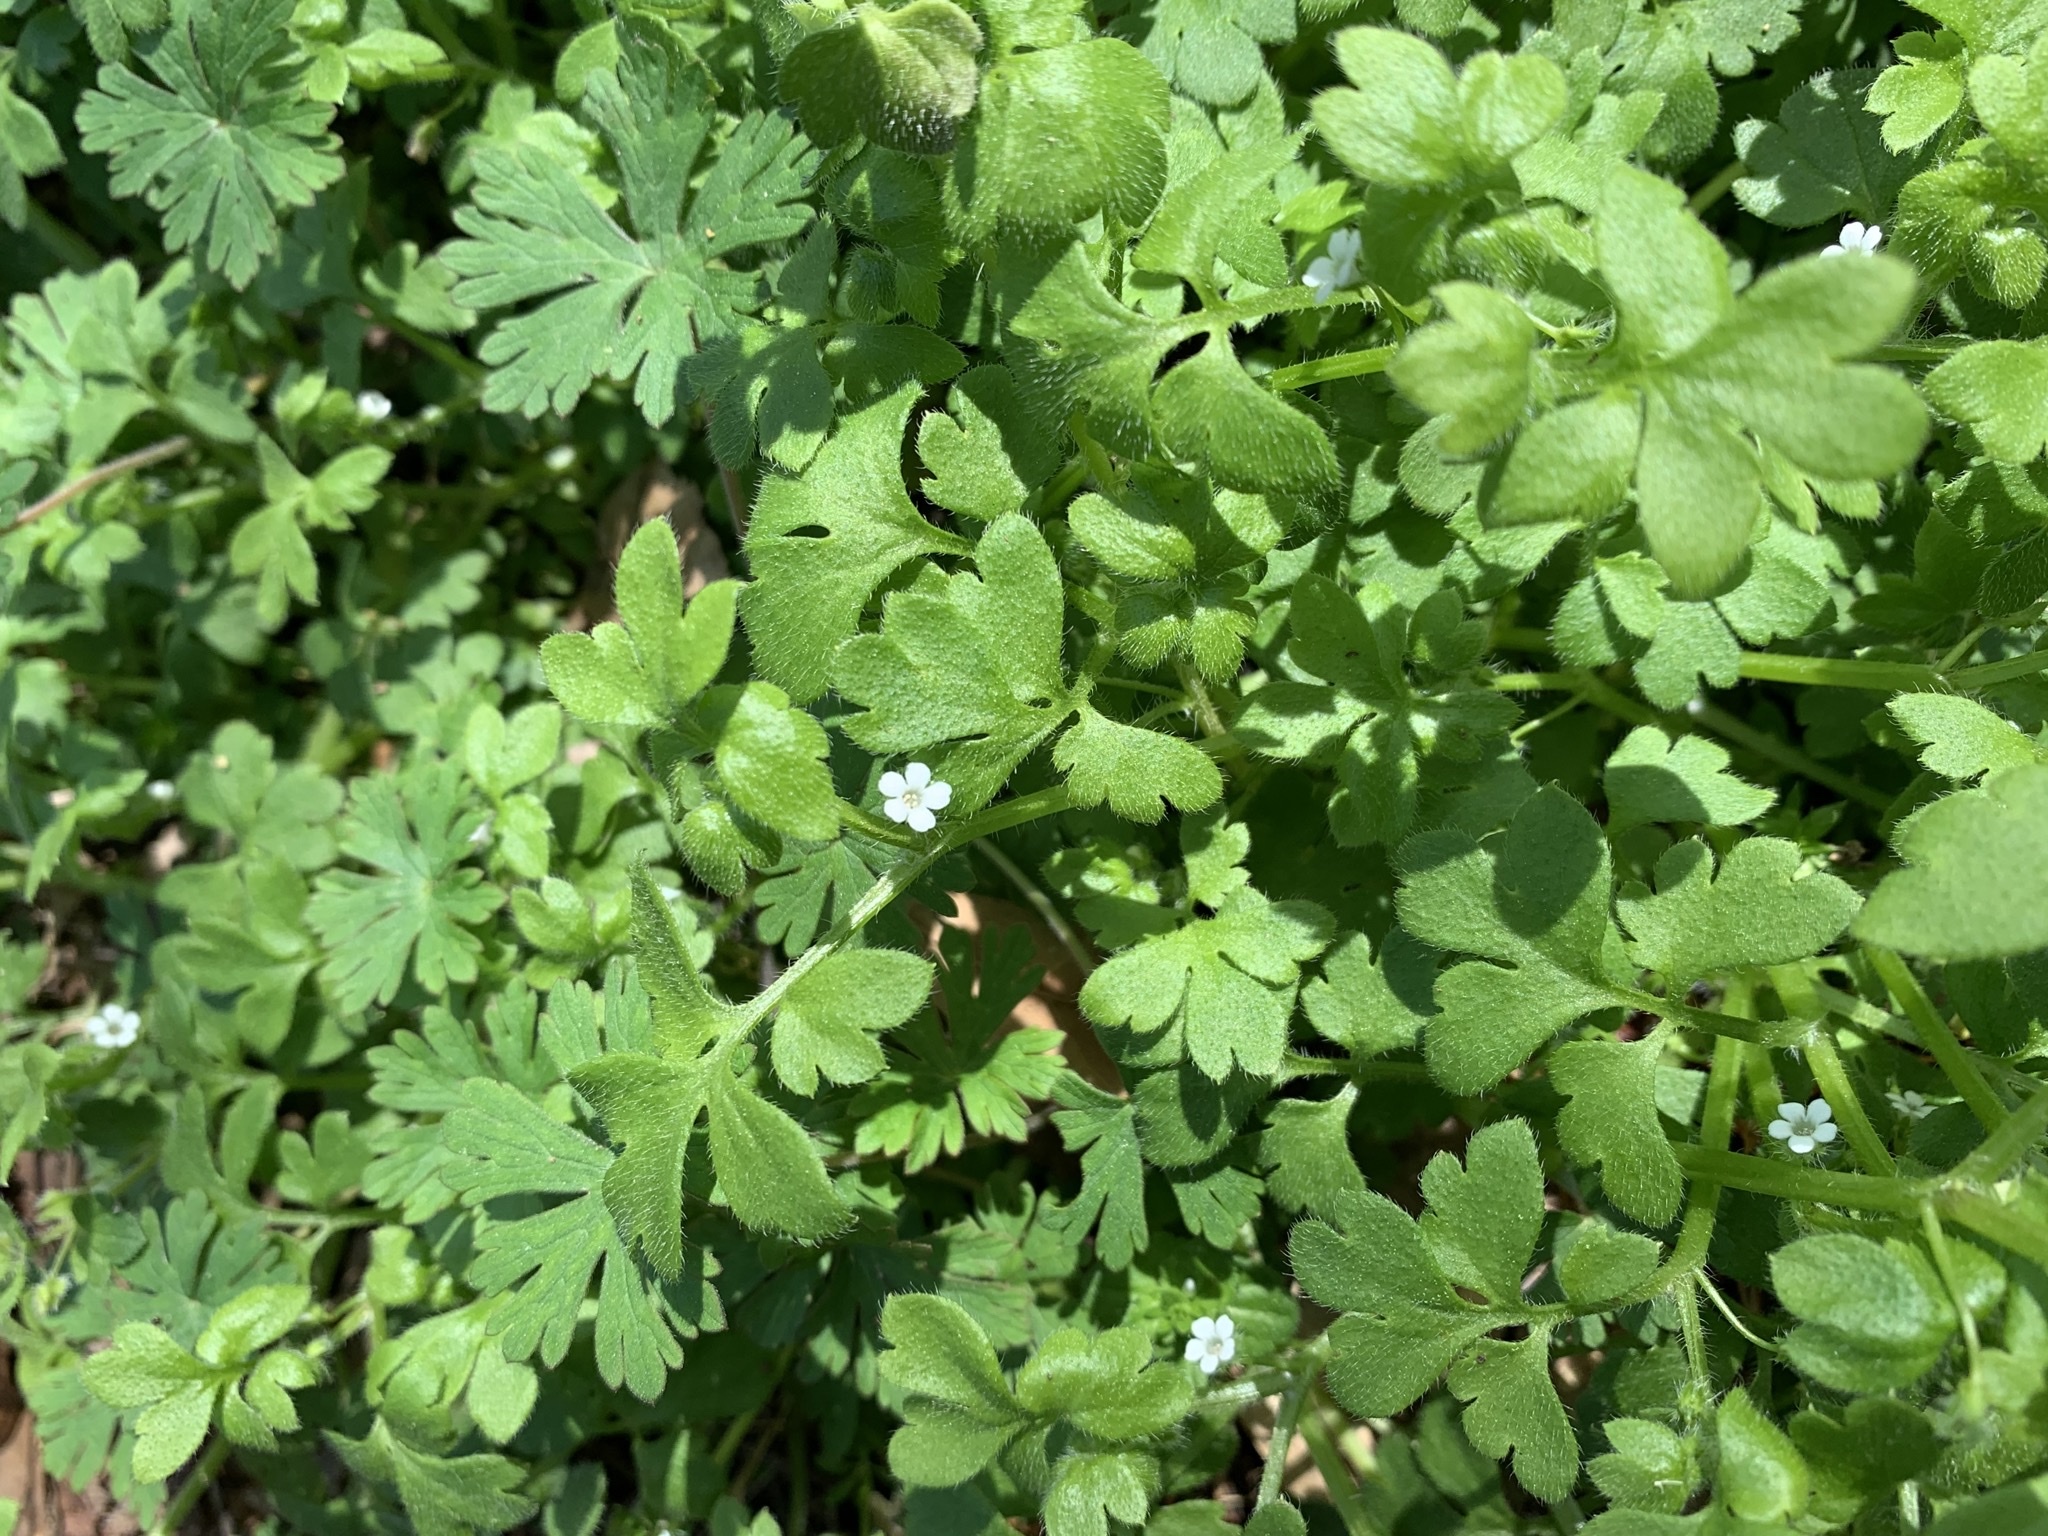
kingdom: Plantae
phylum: Tracheophyta
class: Magnoliopsida
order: Boraginales
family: Hydrophyllaceae
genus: Nemophila
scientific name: Nemophila aphylla
